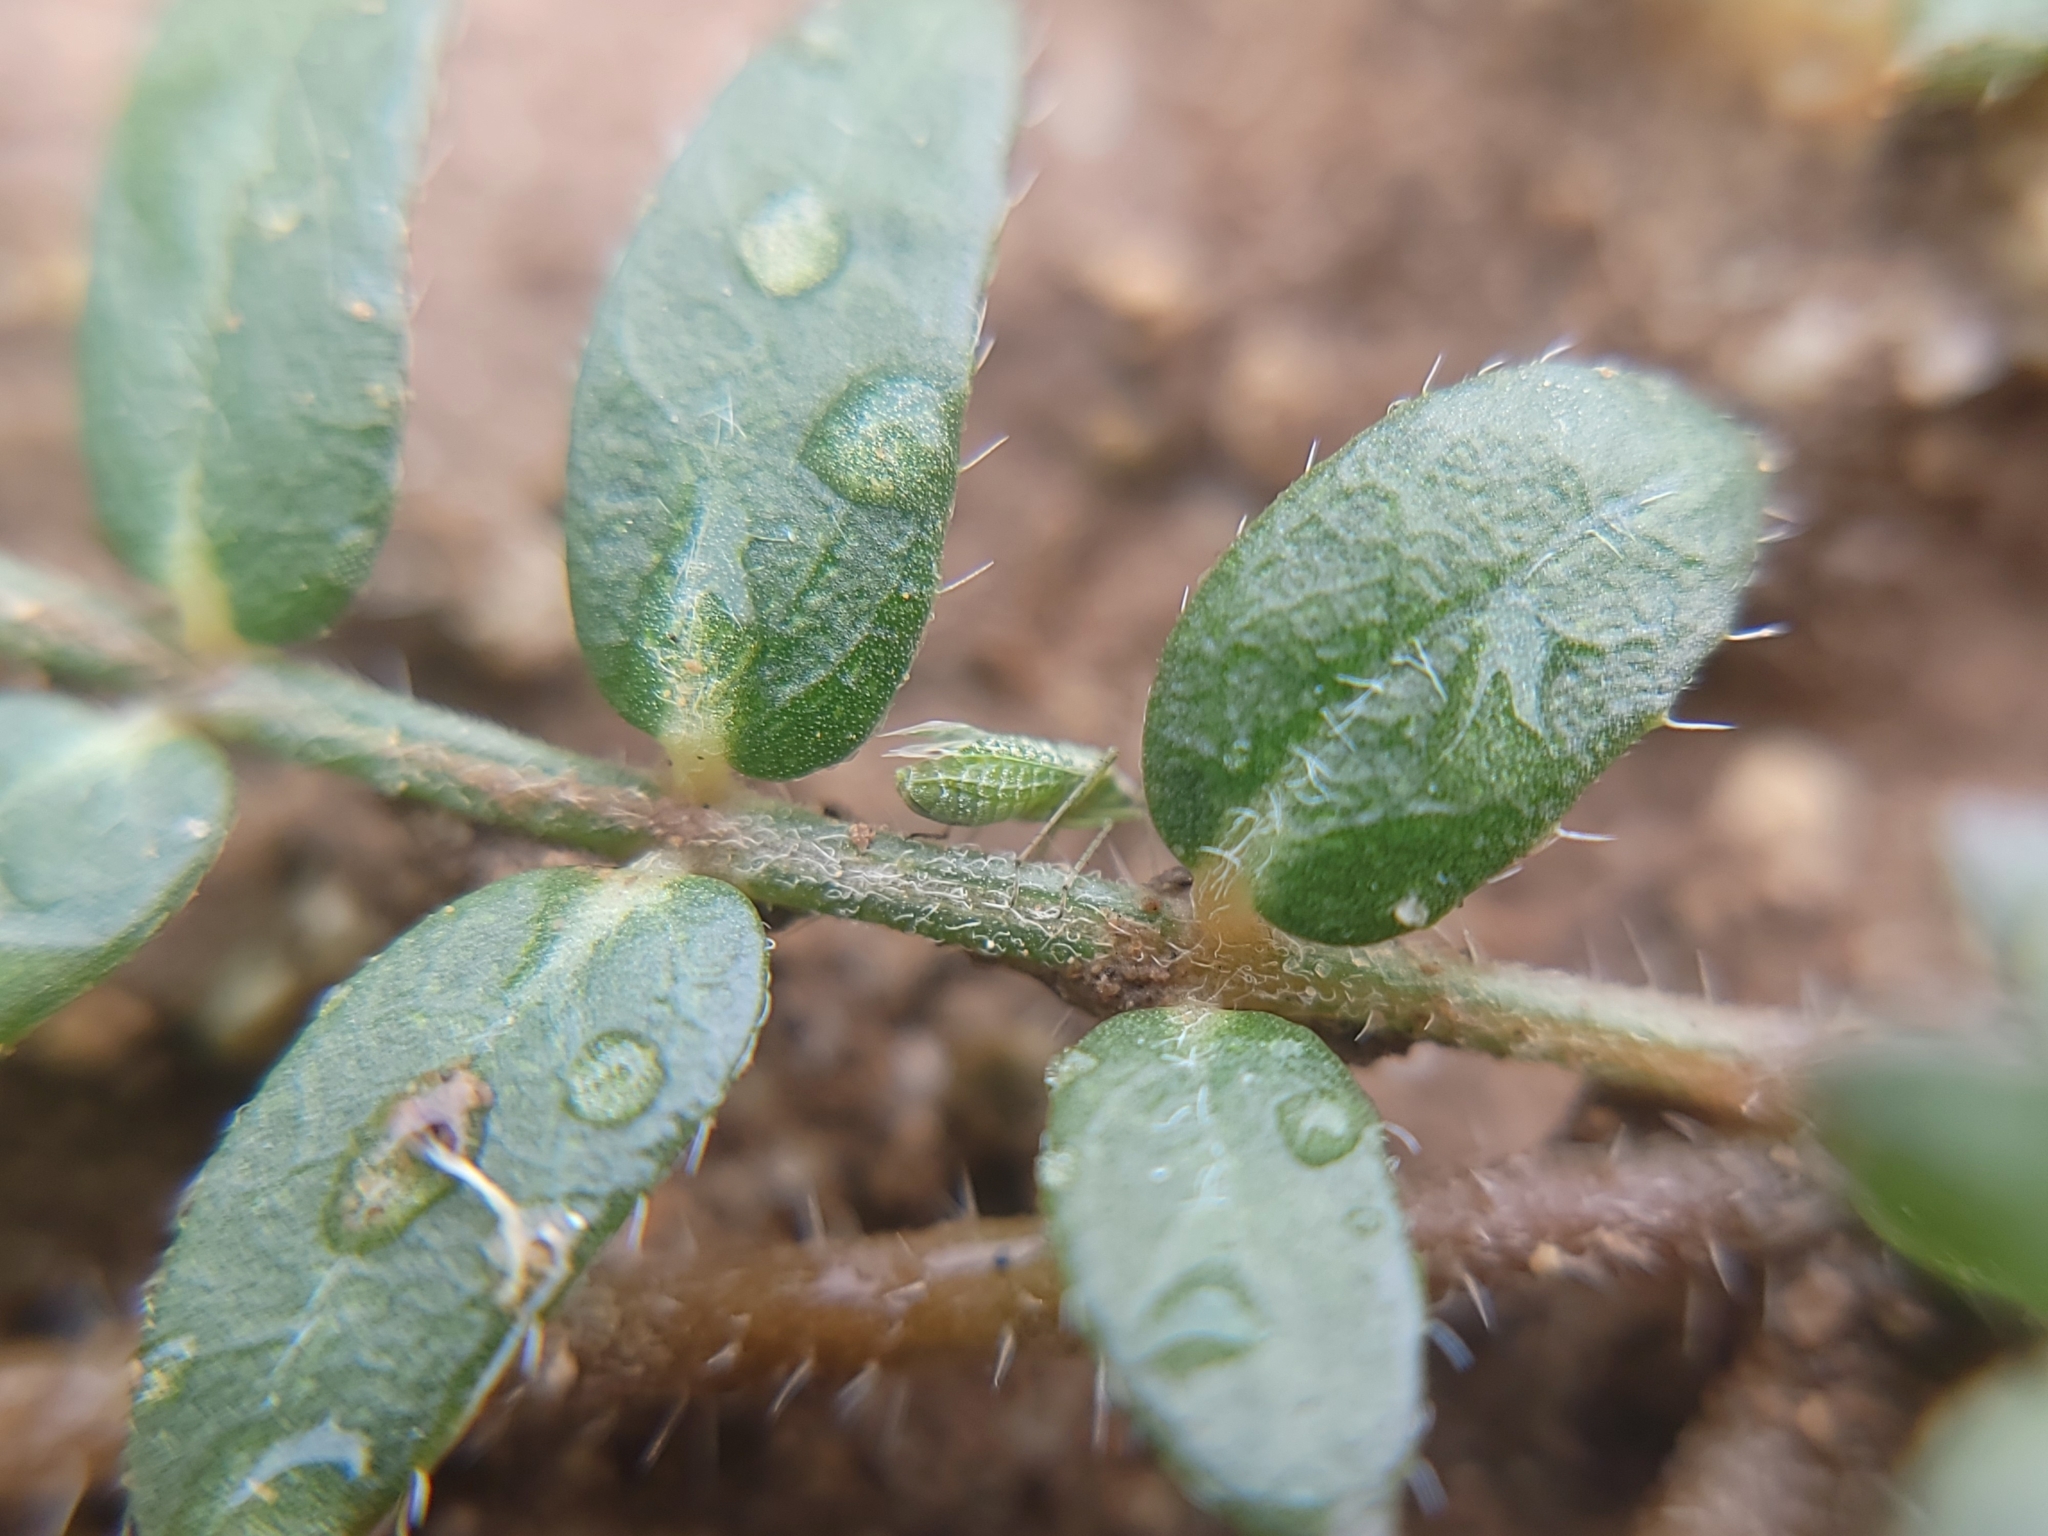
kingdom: Plantae
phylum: Tracheophyta
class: Magnoliopsida
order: Zygophyllales
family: Zygophyllaceae
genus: Tribulus
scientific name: Tribulus terrestris
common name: Puncturevine
